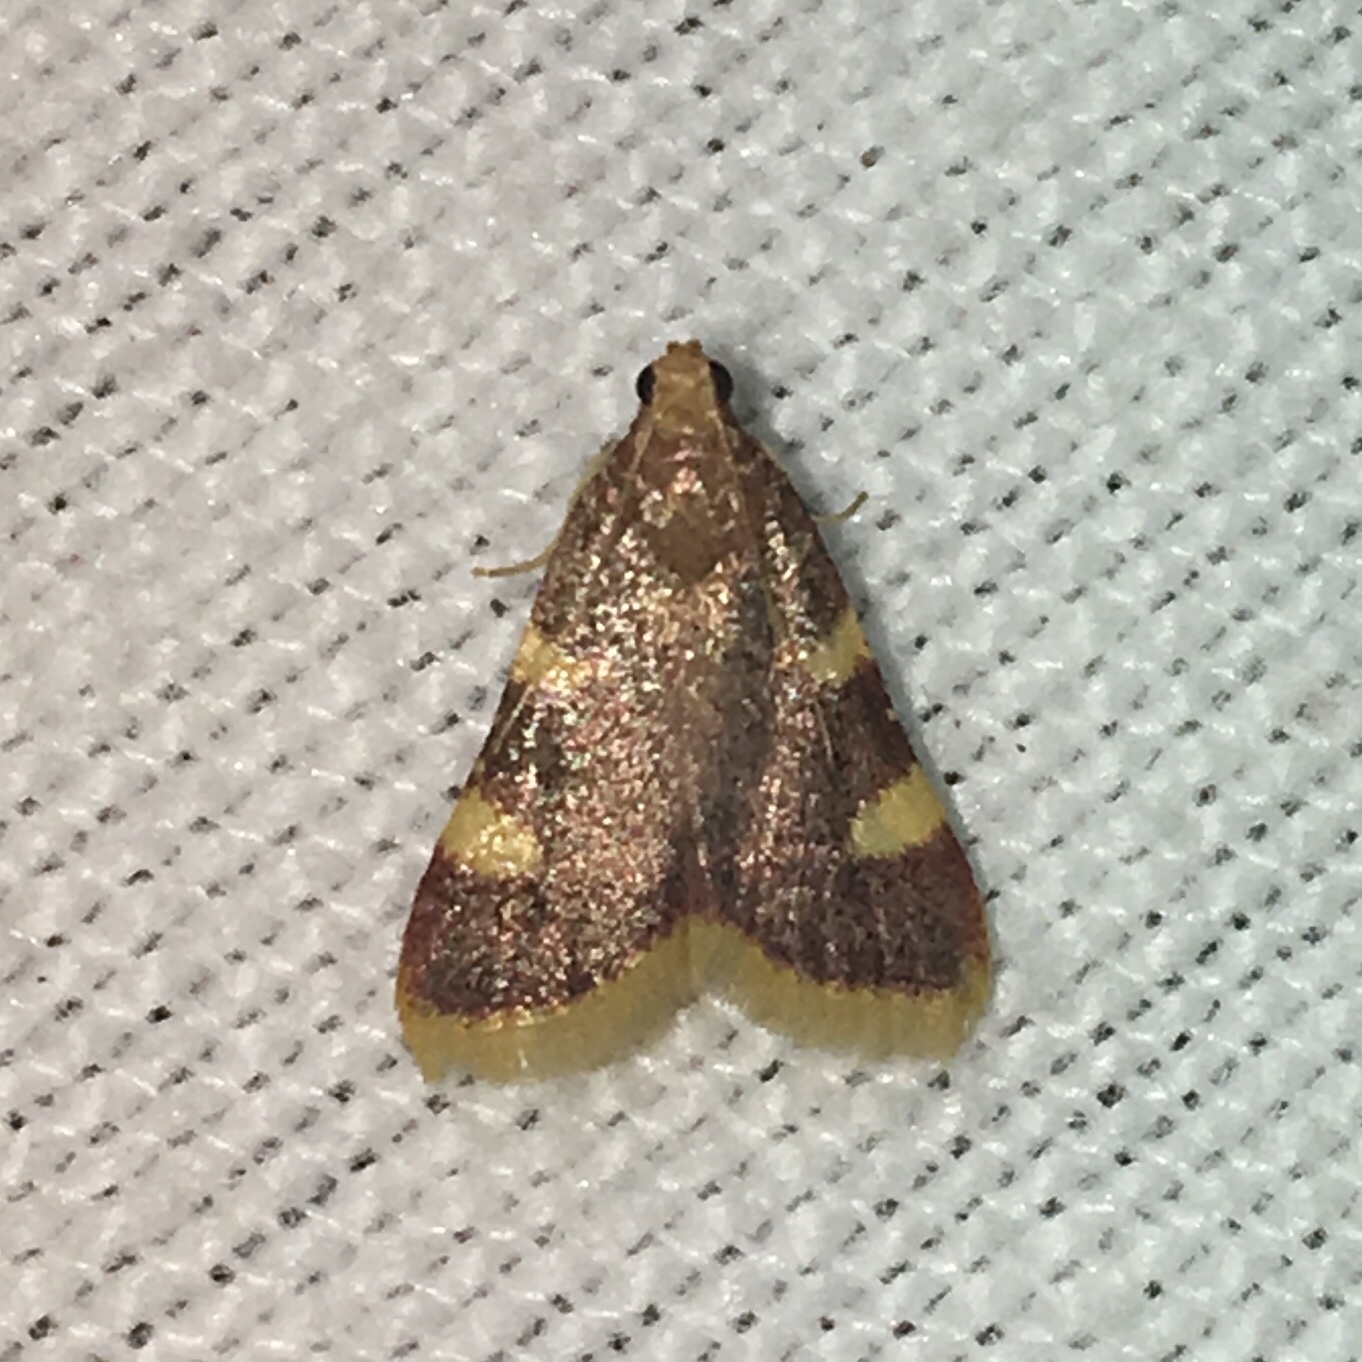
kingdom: Animalia
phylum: Arthropoda
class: Insecta
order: Lepidoptera
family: Pyralidae
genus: Hypsopygia
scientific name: Hypsopygia costalis
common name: Gold triangle
